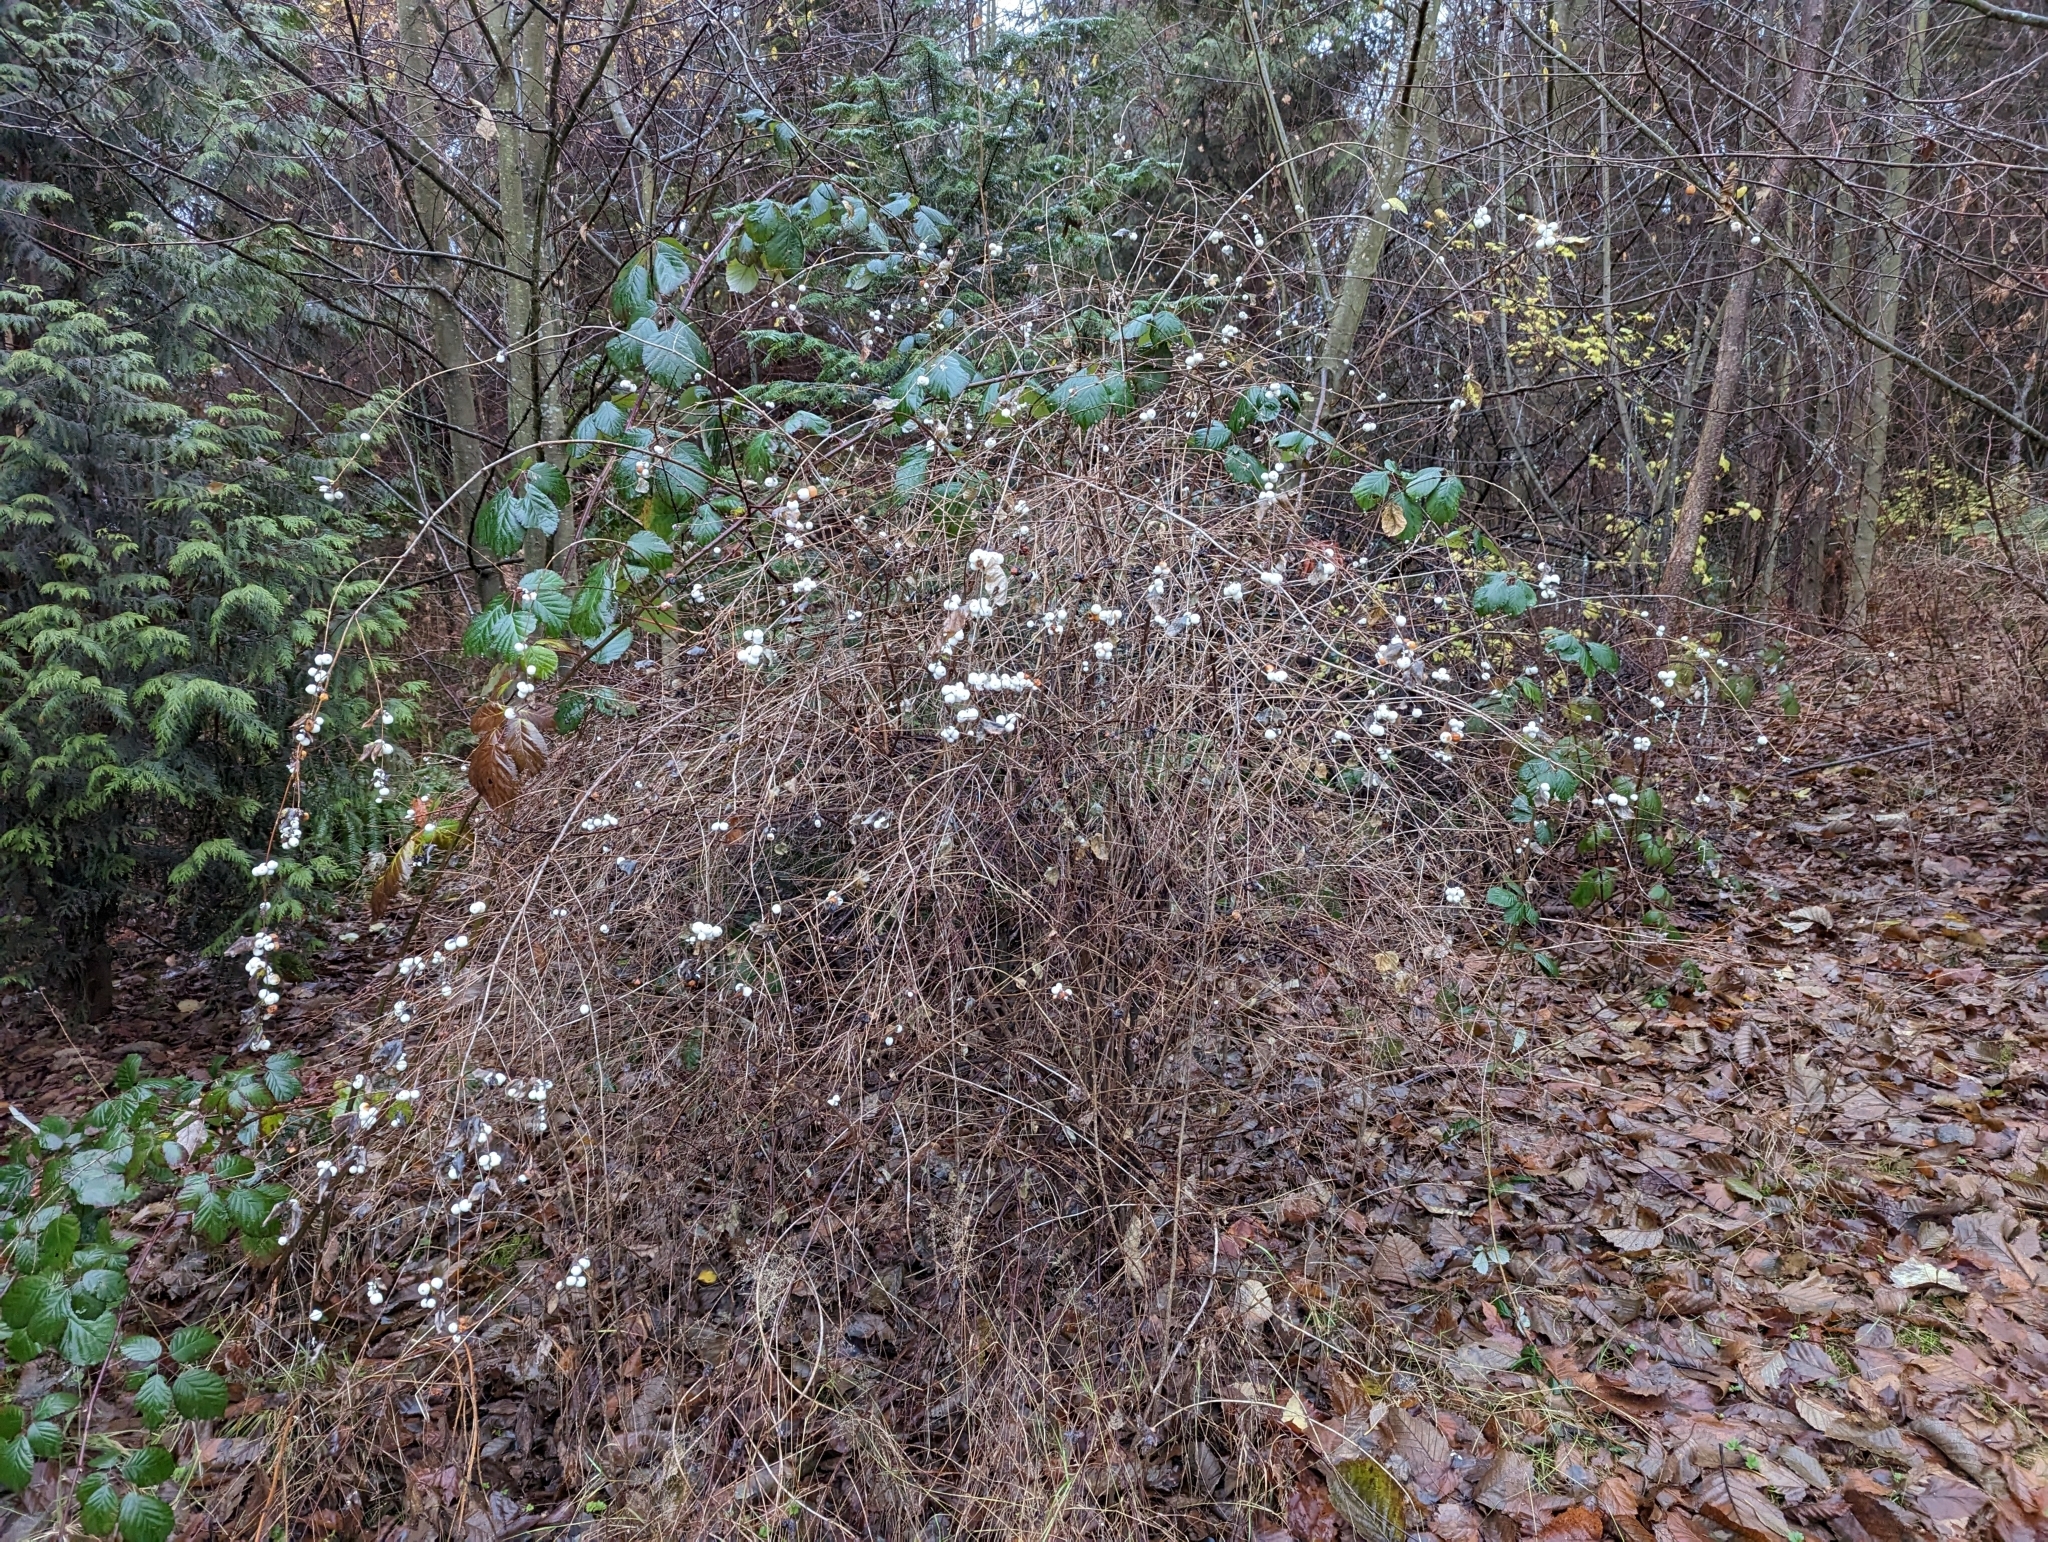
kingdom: Plantae
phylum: Tracheophyta
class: Magnoliopsida
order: Dipsacales
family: Caprifoliaceae
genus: Symphoricarpos
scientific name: Symphoricarpos albus
